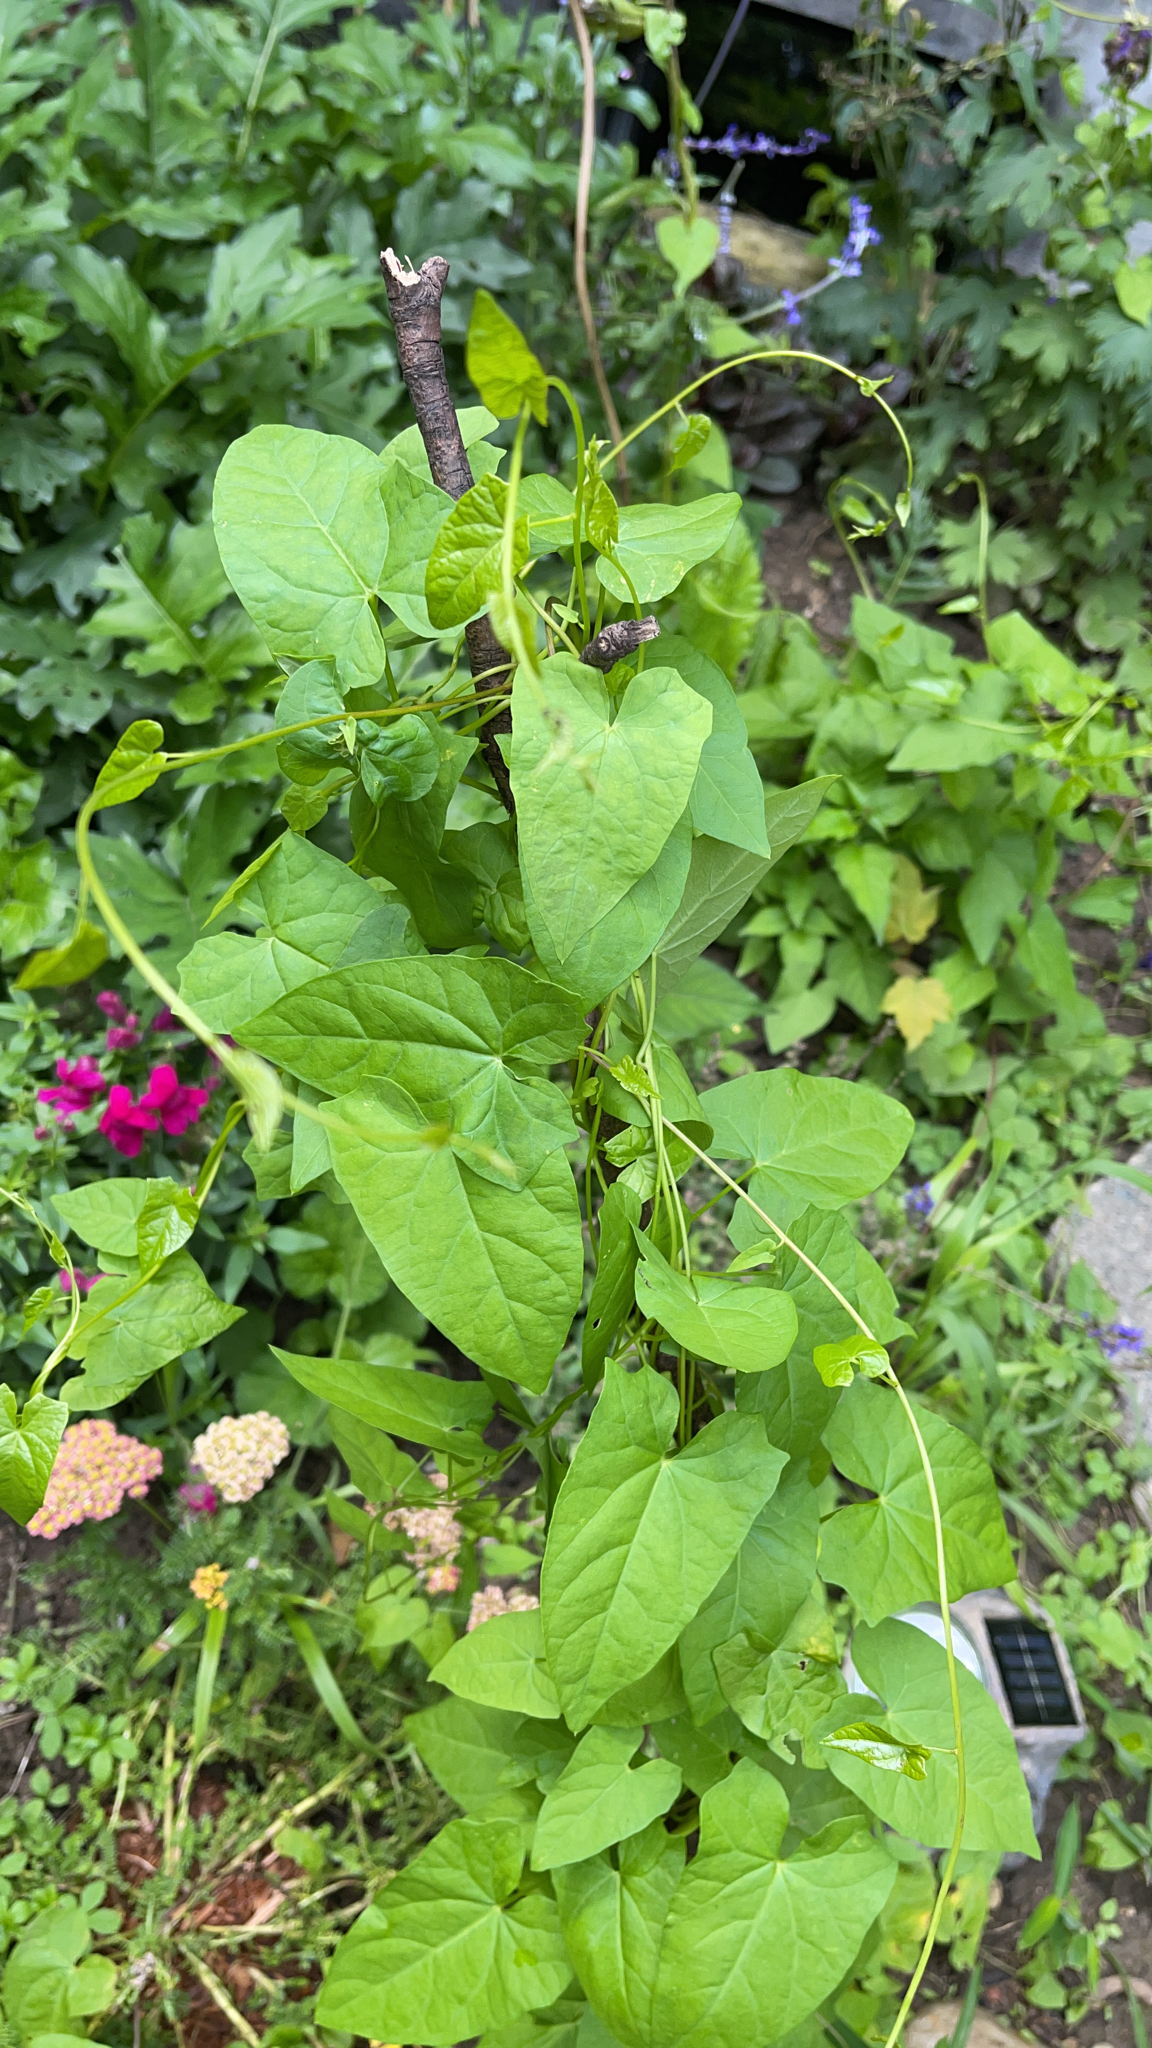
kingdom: Plantae
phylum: Tracheophyta
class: Magnoliopsida
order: Solanales
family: Convolvulaceae
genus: Calystegia
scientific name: Calystegia
